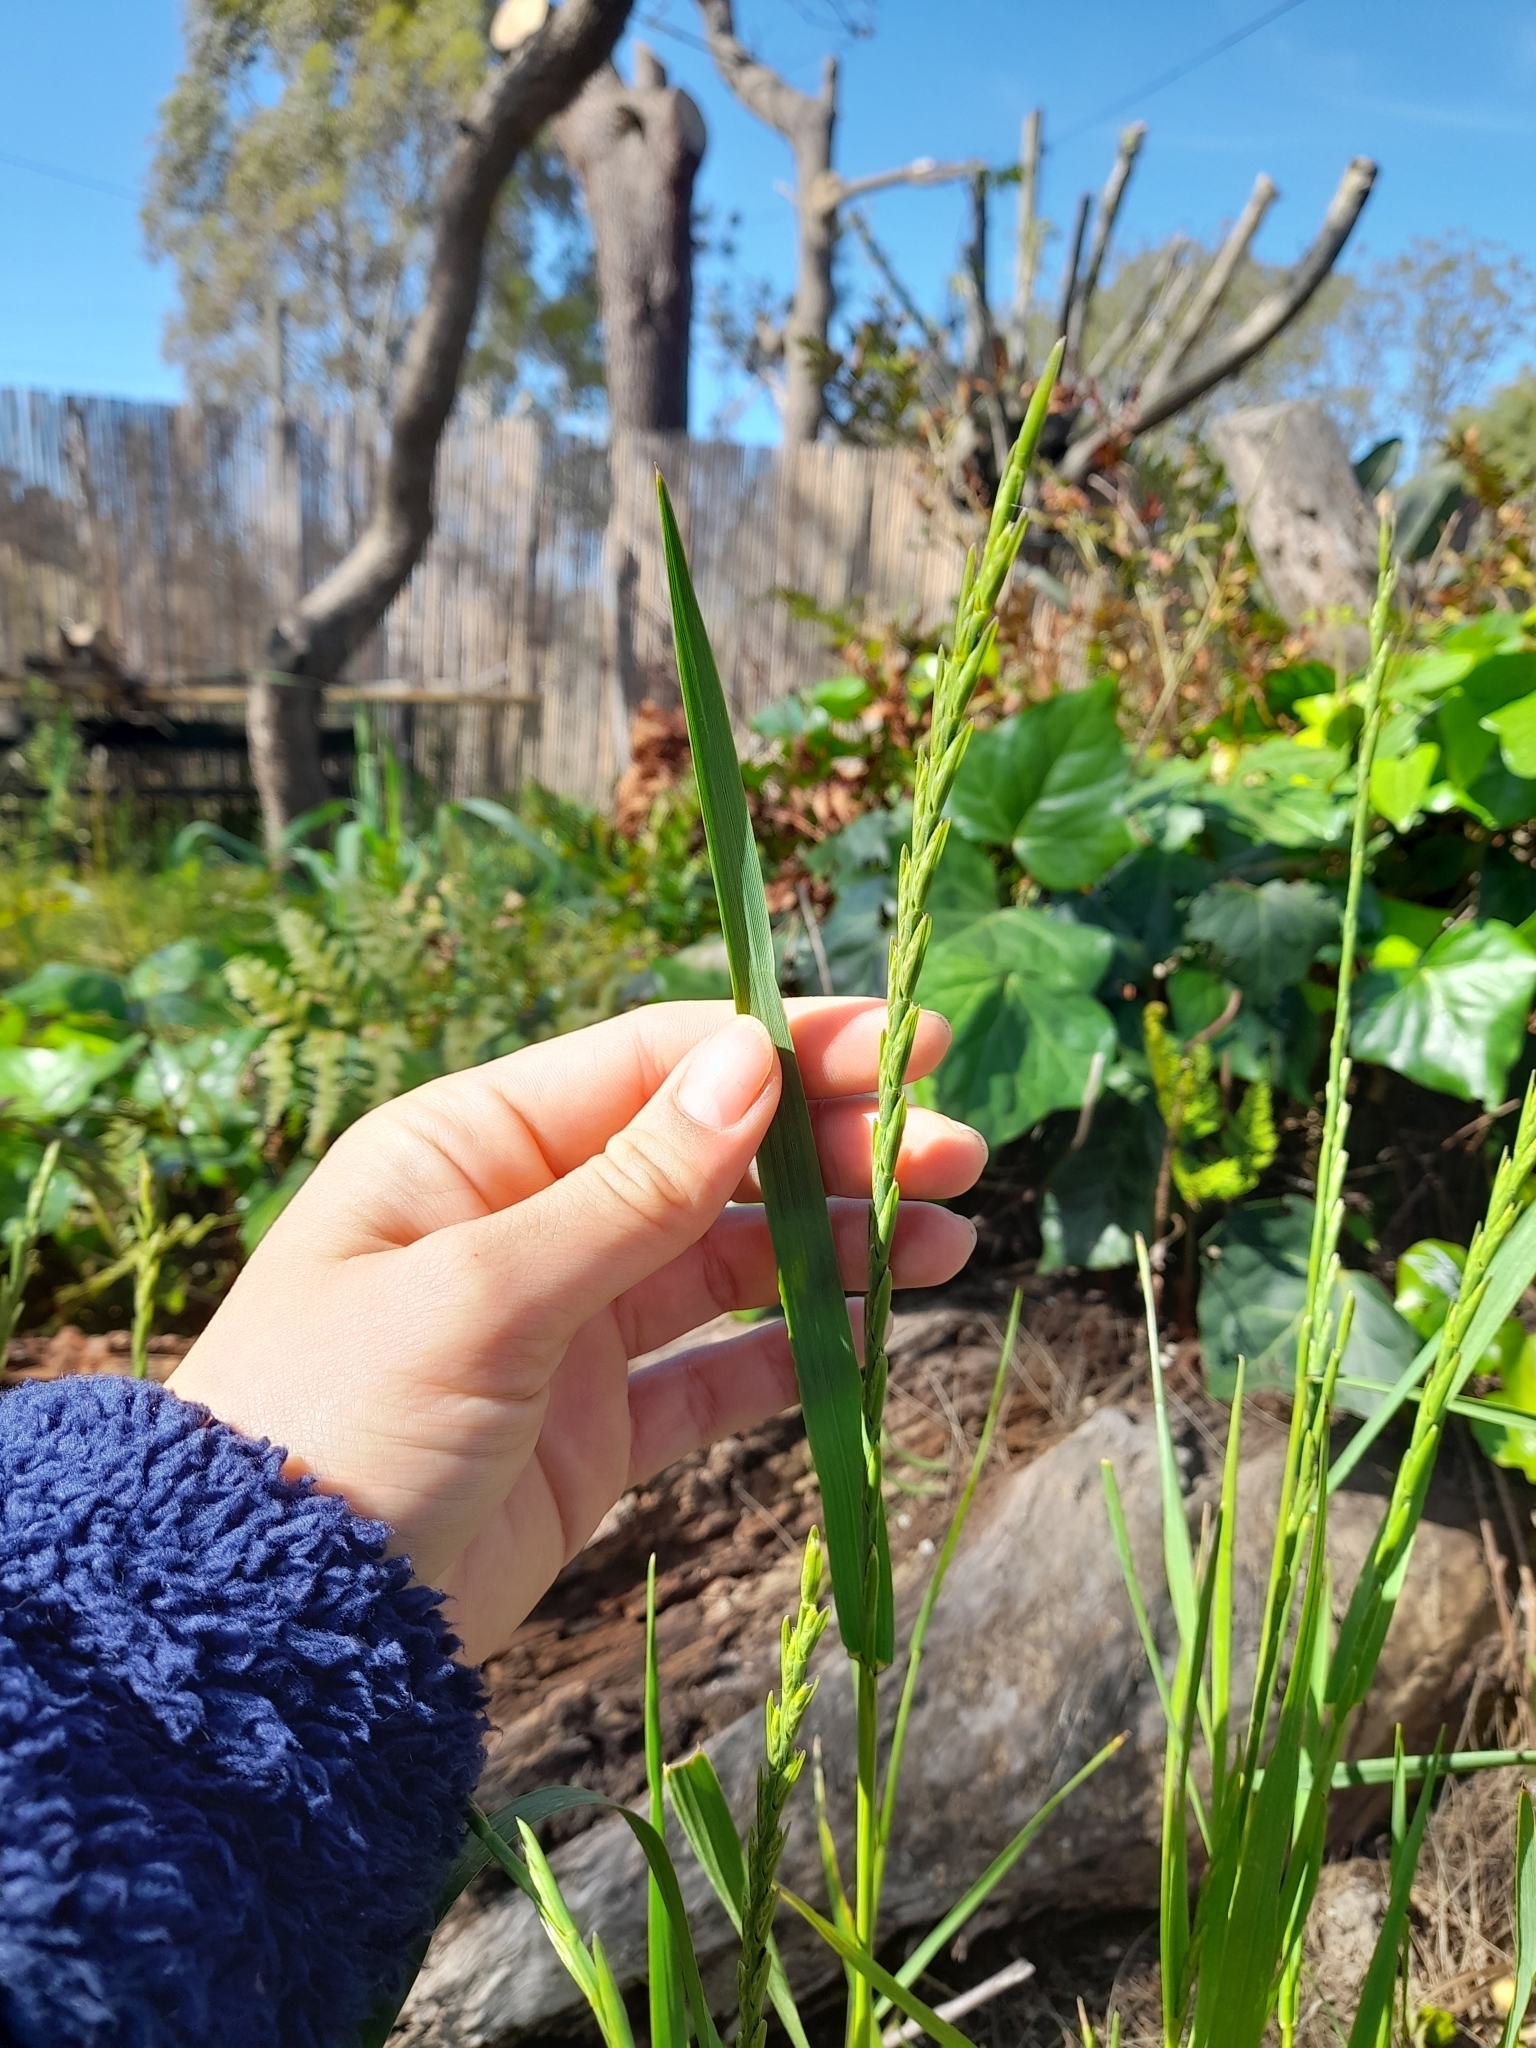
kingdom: Plantae
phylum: Tracheophyta
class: Liliopsida
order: Poales
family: Poaceae
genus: Lolium
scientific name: Lolium multiflorum
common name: Annual ryegrass
